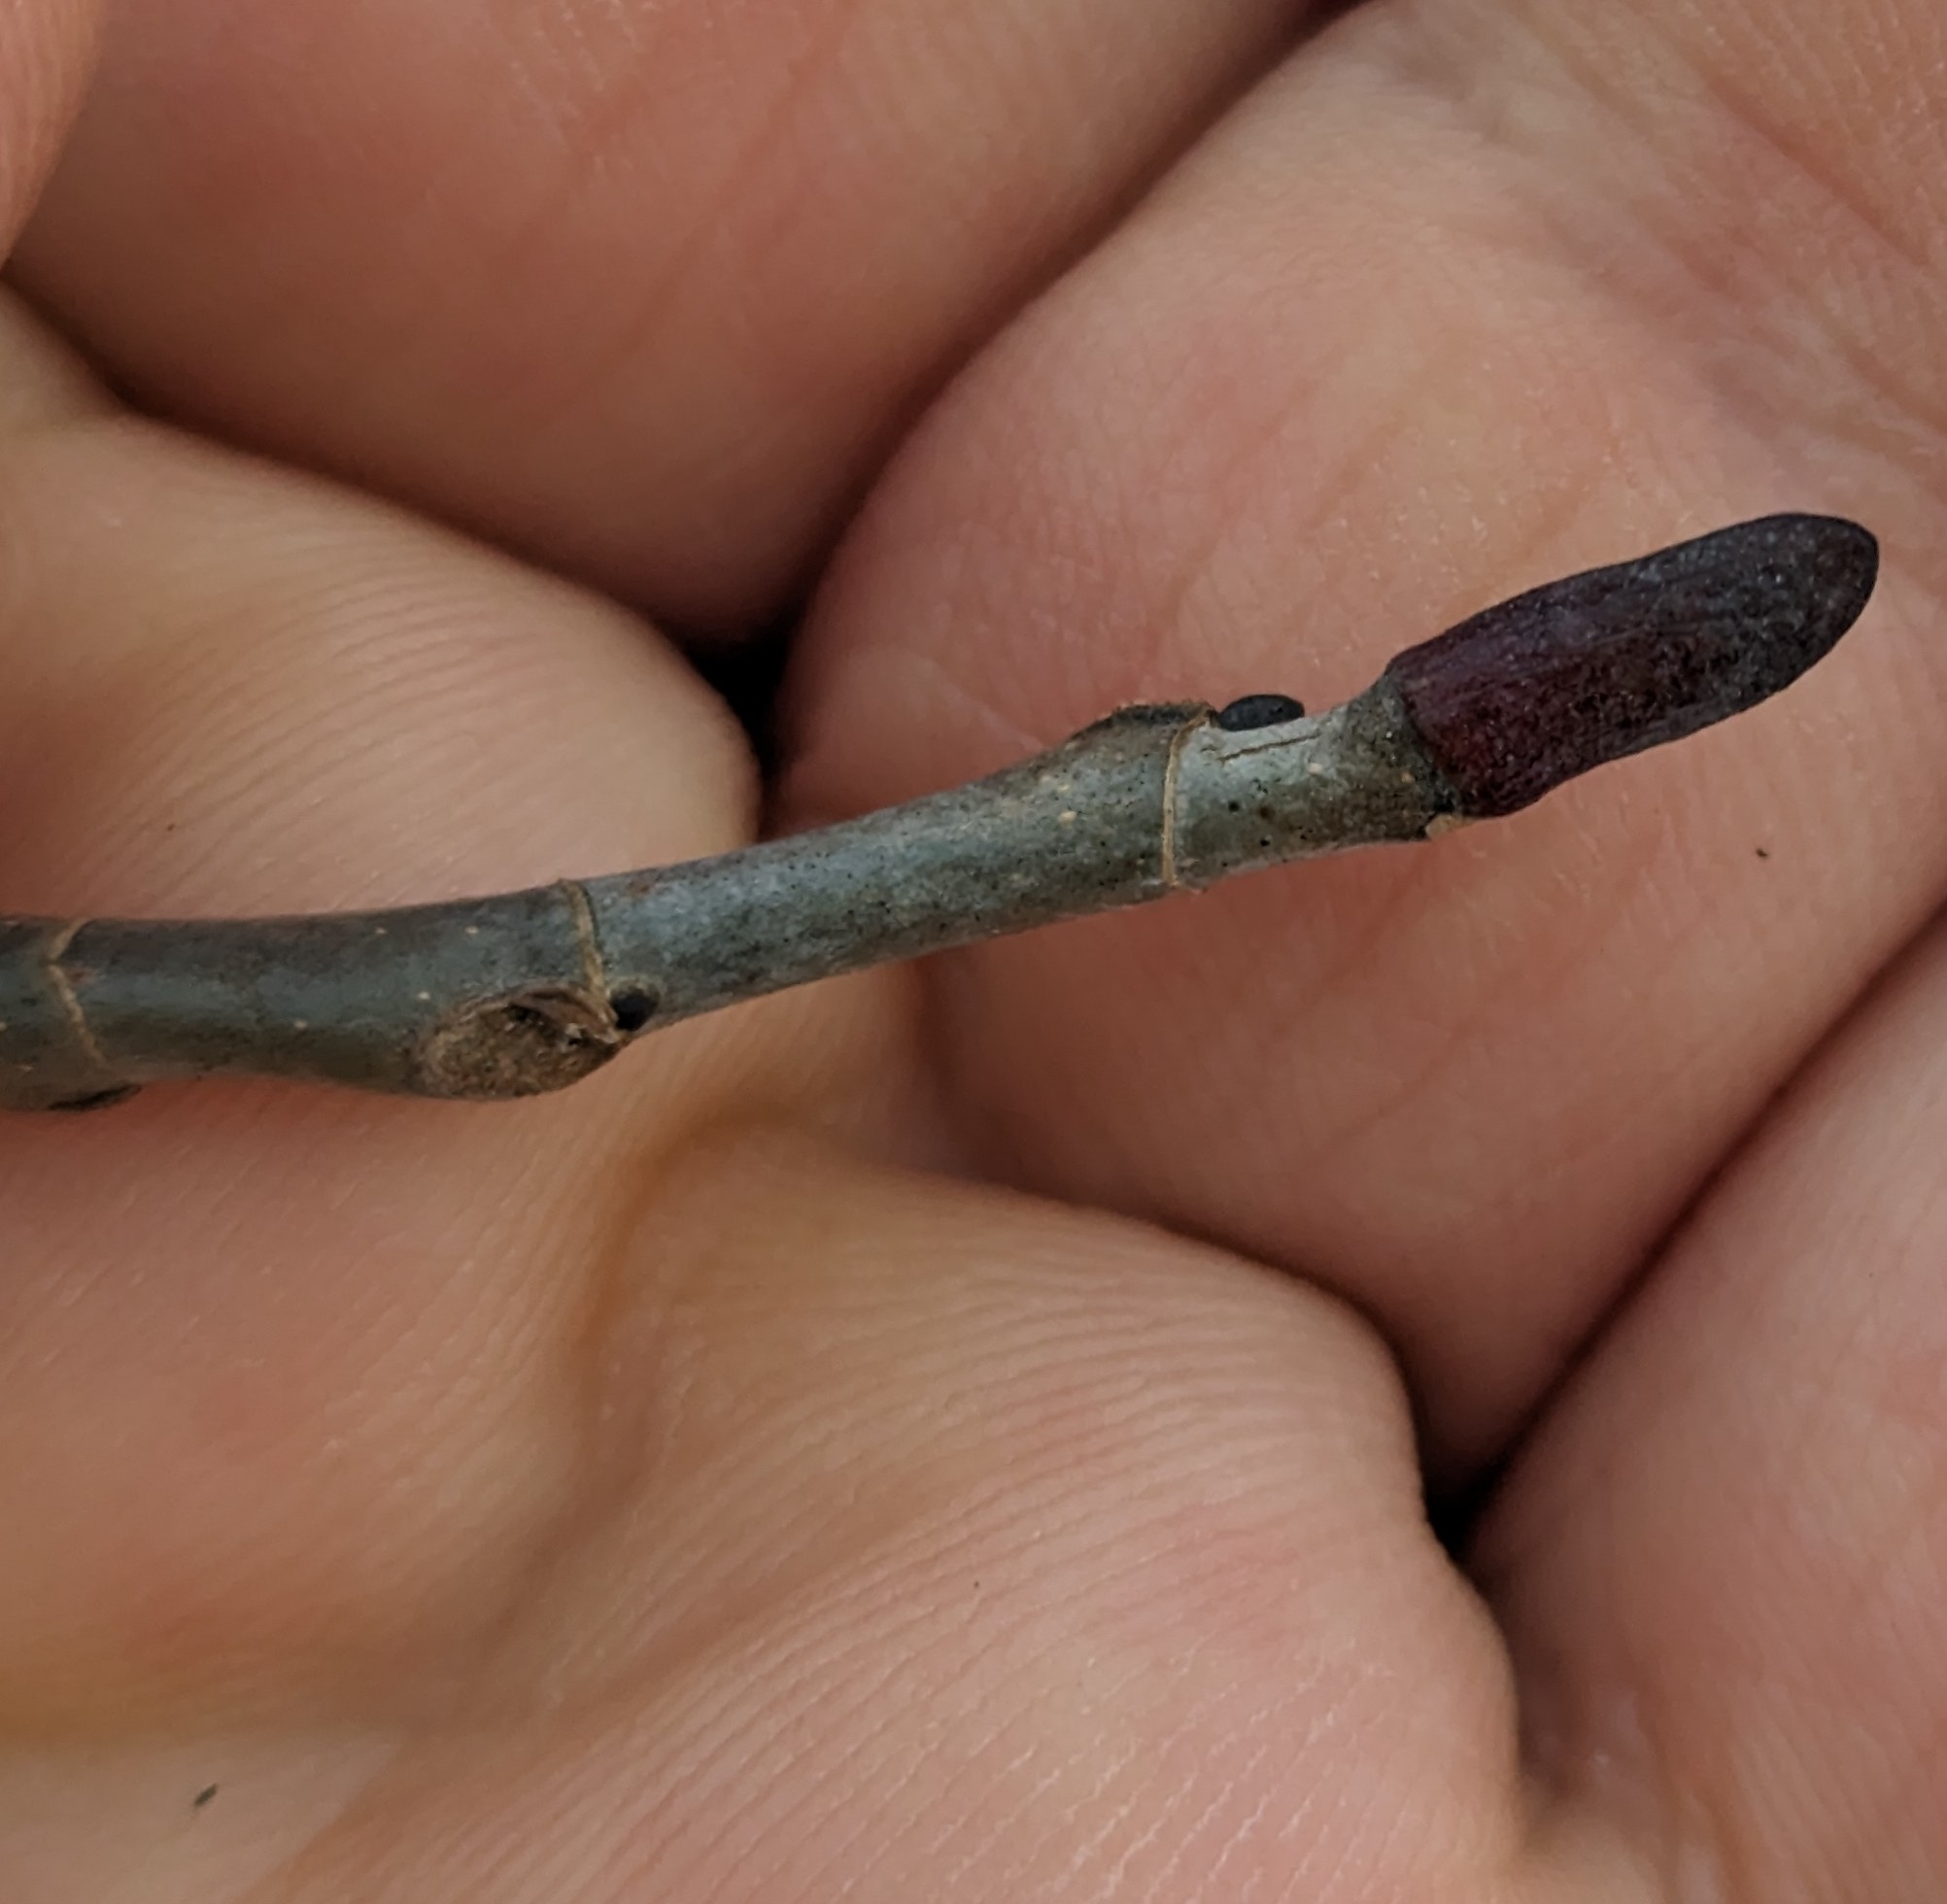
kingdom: Plantae
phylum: Tracheophyta
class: Magnoliopsida
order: Magnoliales
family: Magnoliaceae
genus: Liriodendron
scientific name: Liriodendron tulipifera
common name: Tulip tree
